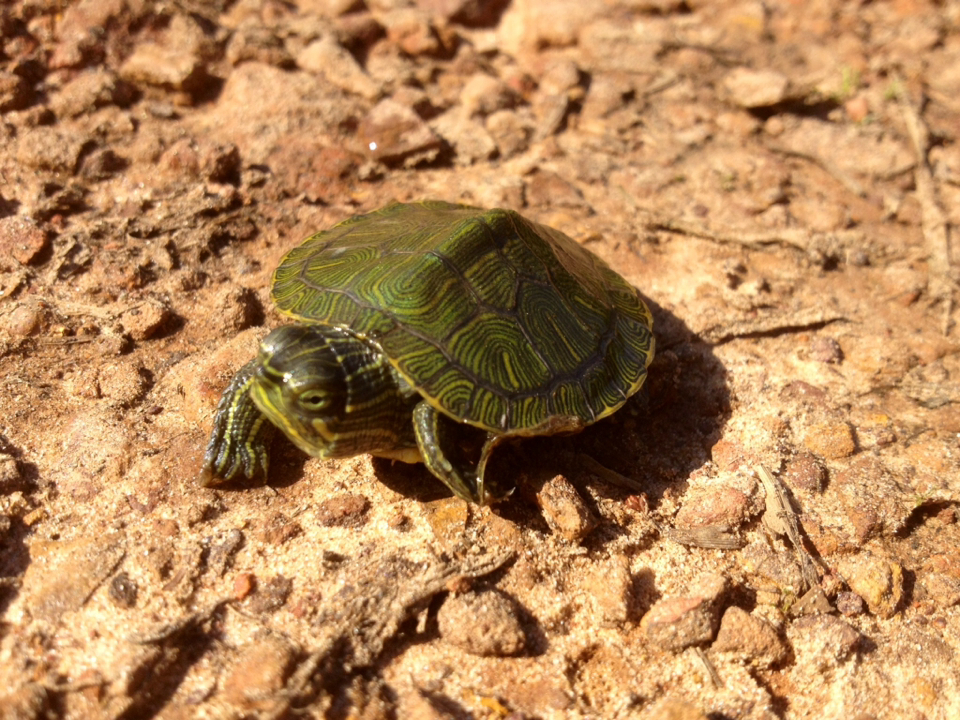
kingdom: Animalia
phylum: Chordata
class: Testudines
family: Emydidae
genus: Trachemys
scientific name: Trachemys scripta
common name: Slider
